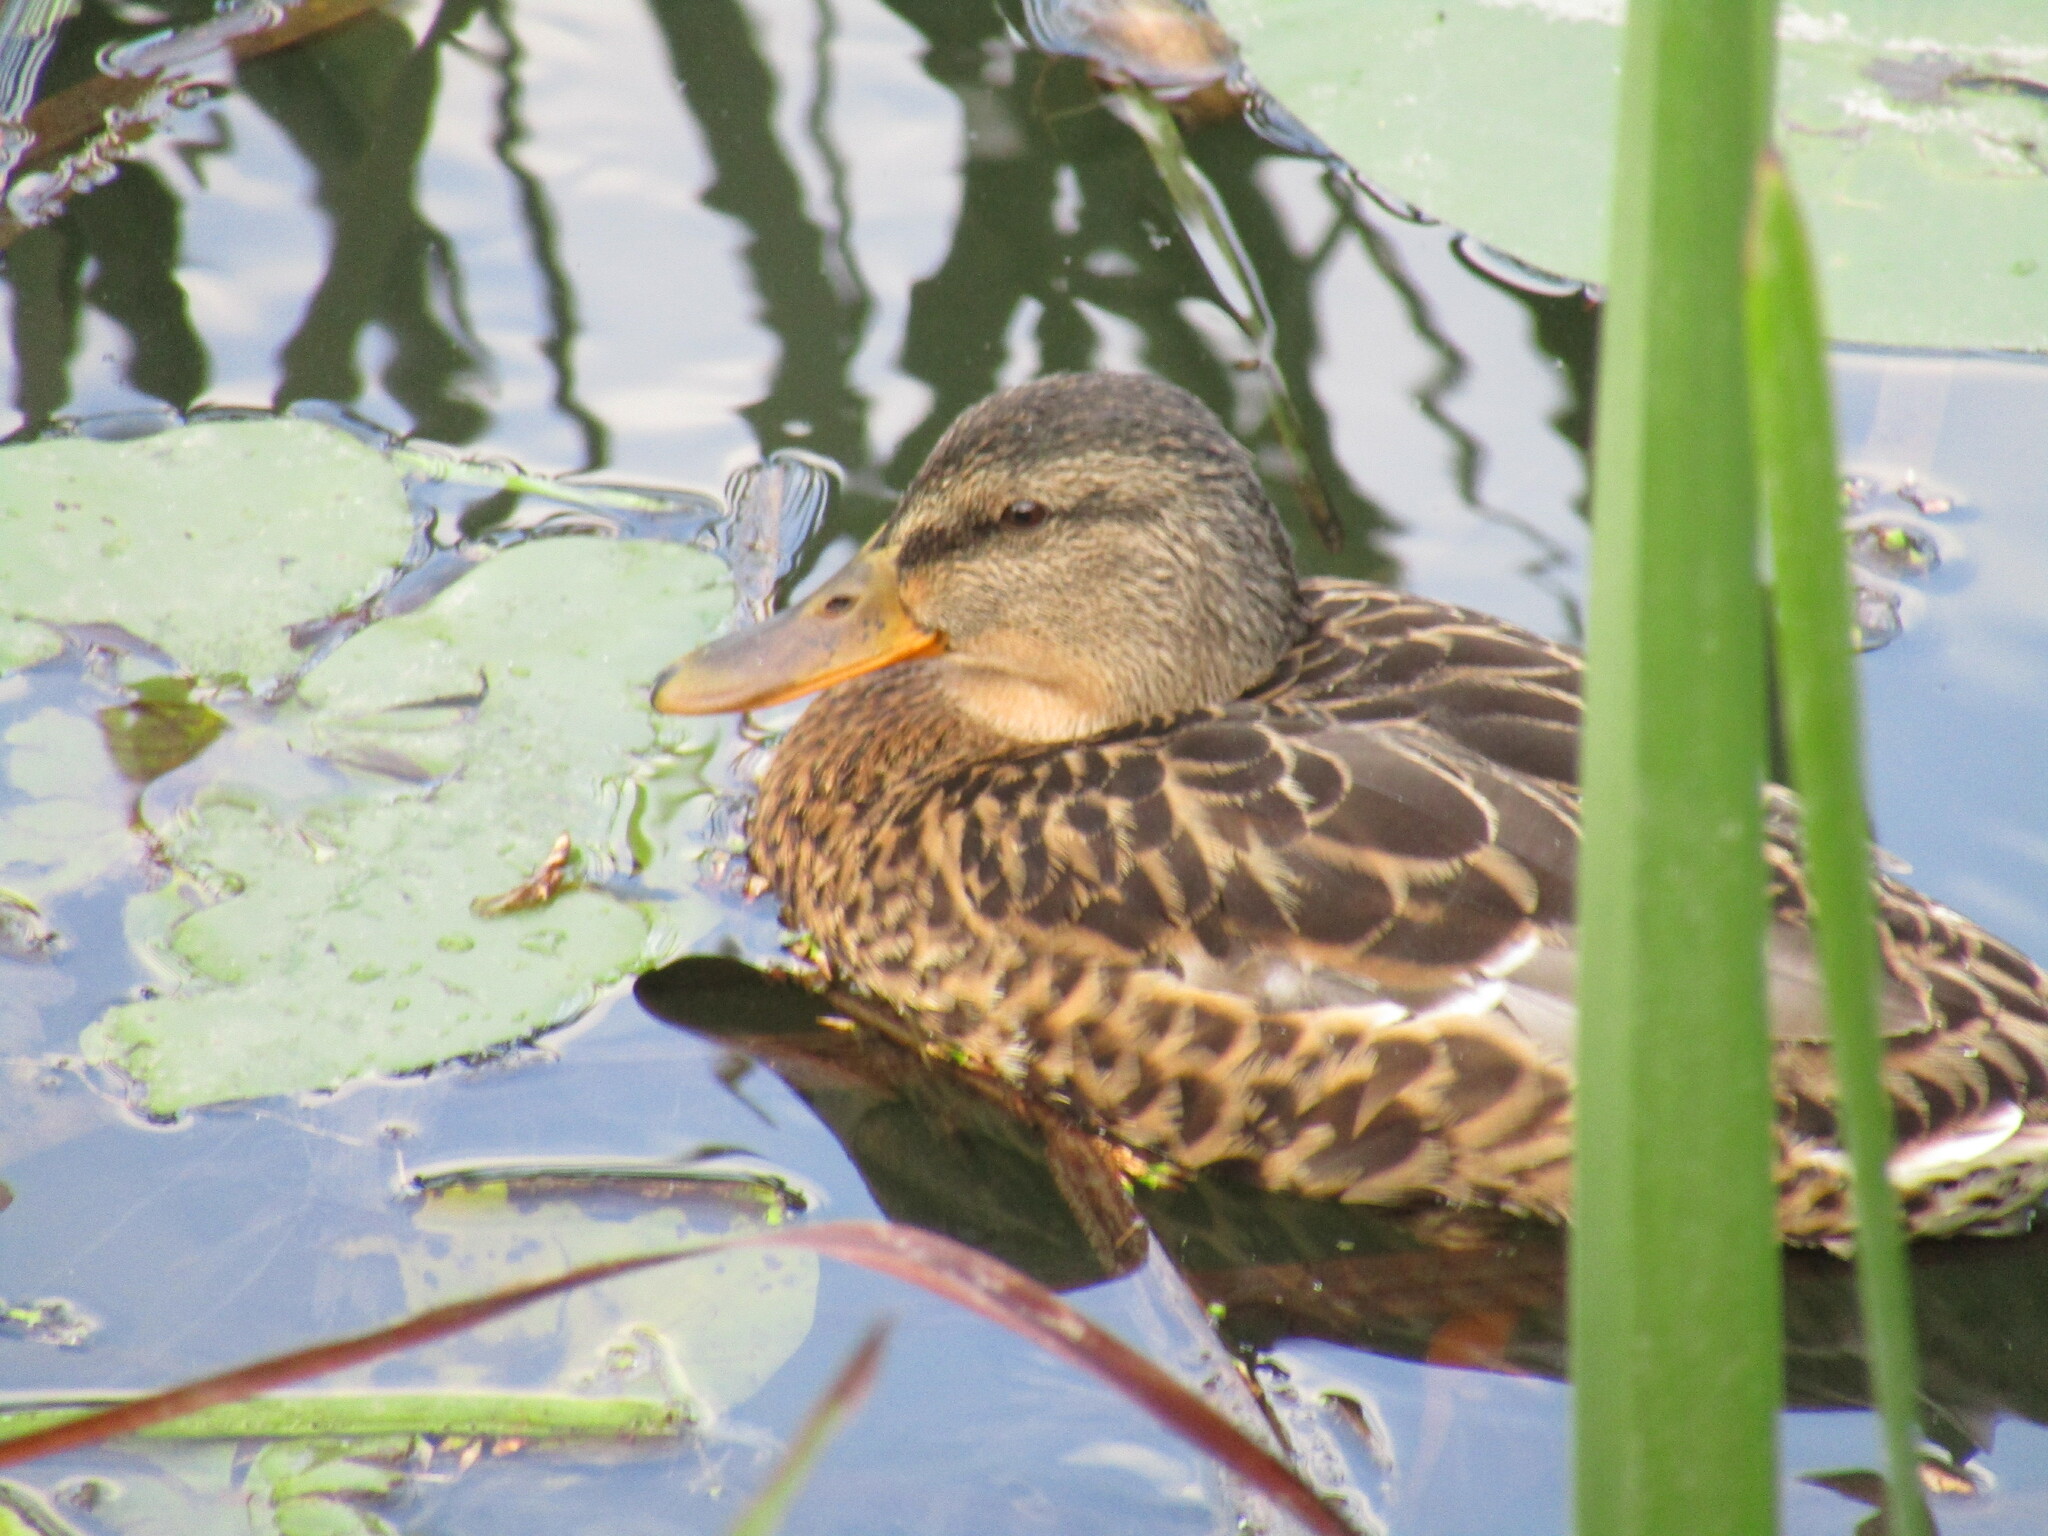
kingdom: Animalia
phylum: Chordata
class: Aves
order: Anseriformes
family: Anatidae
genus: Anas
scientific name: Anas platyrhynchos
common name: Mallard
